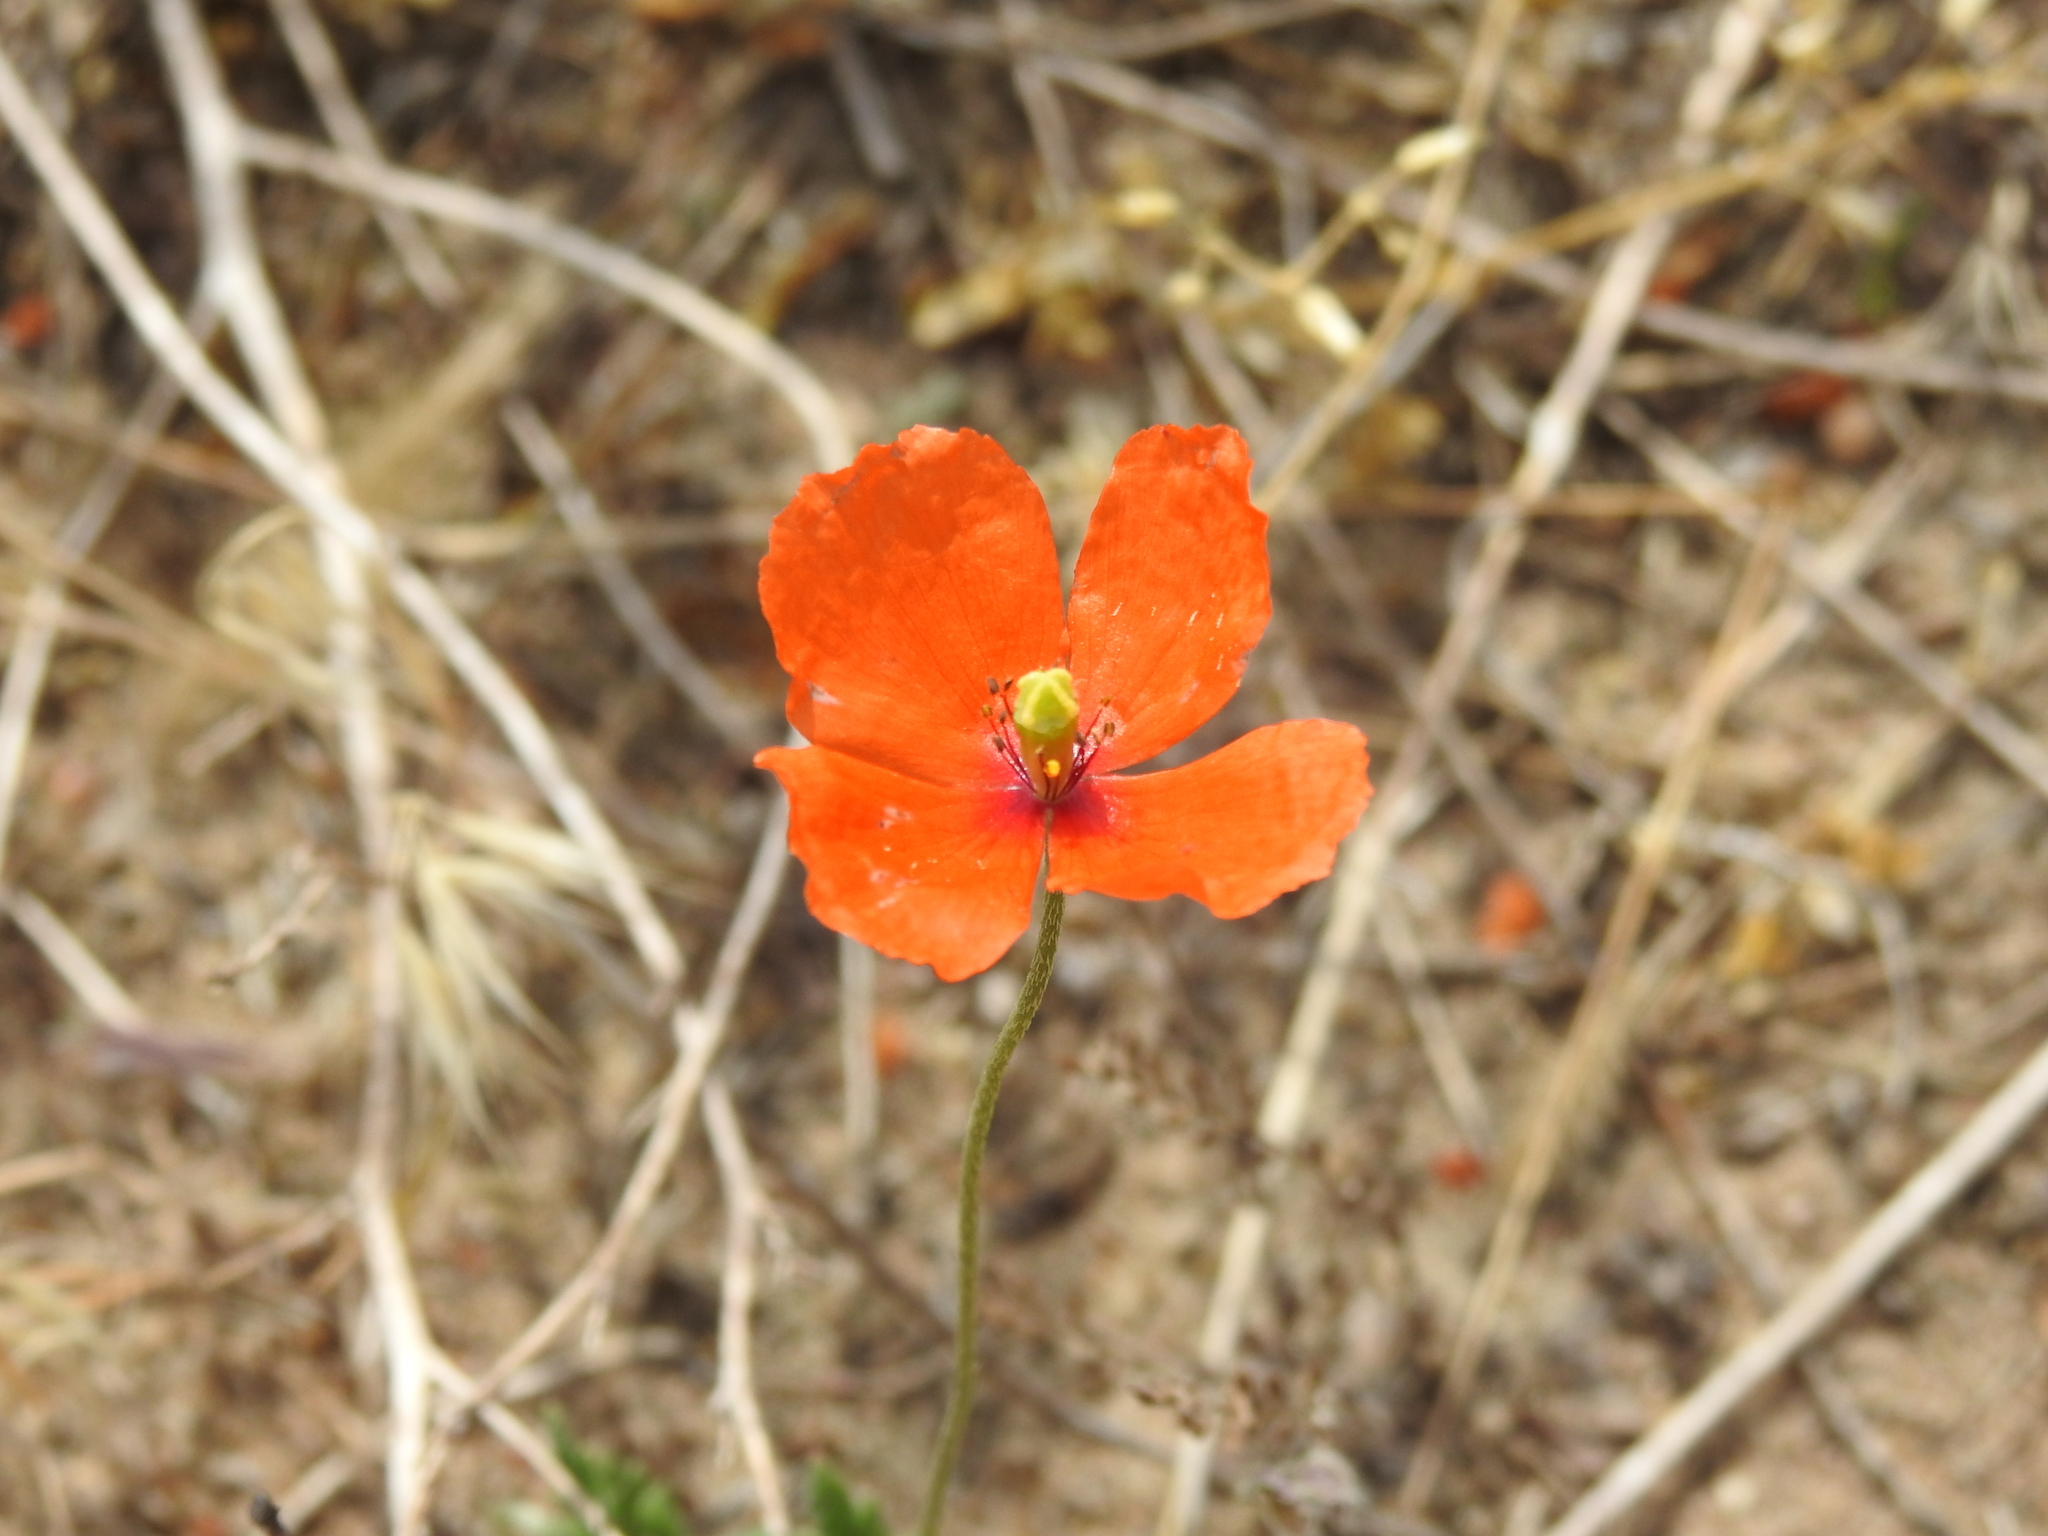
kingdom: Plantae
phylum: Tracheophyta
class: Magnoliopsida
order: Ranunculales
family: Papaveraceae
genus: Papaver
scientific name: Papaver dubium
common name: Long-headed poppy
